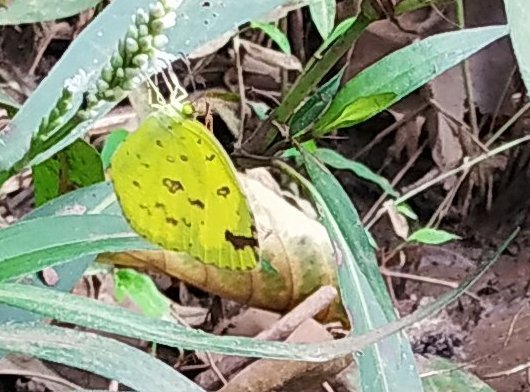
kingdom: Animalia
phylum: Arthropoda
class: Insecta
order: Lepidoptera
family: Pieridae
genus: Eurema
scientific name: Eurema hecabe
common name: Pale grass yellow
